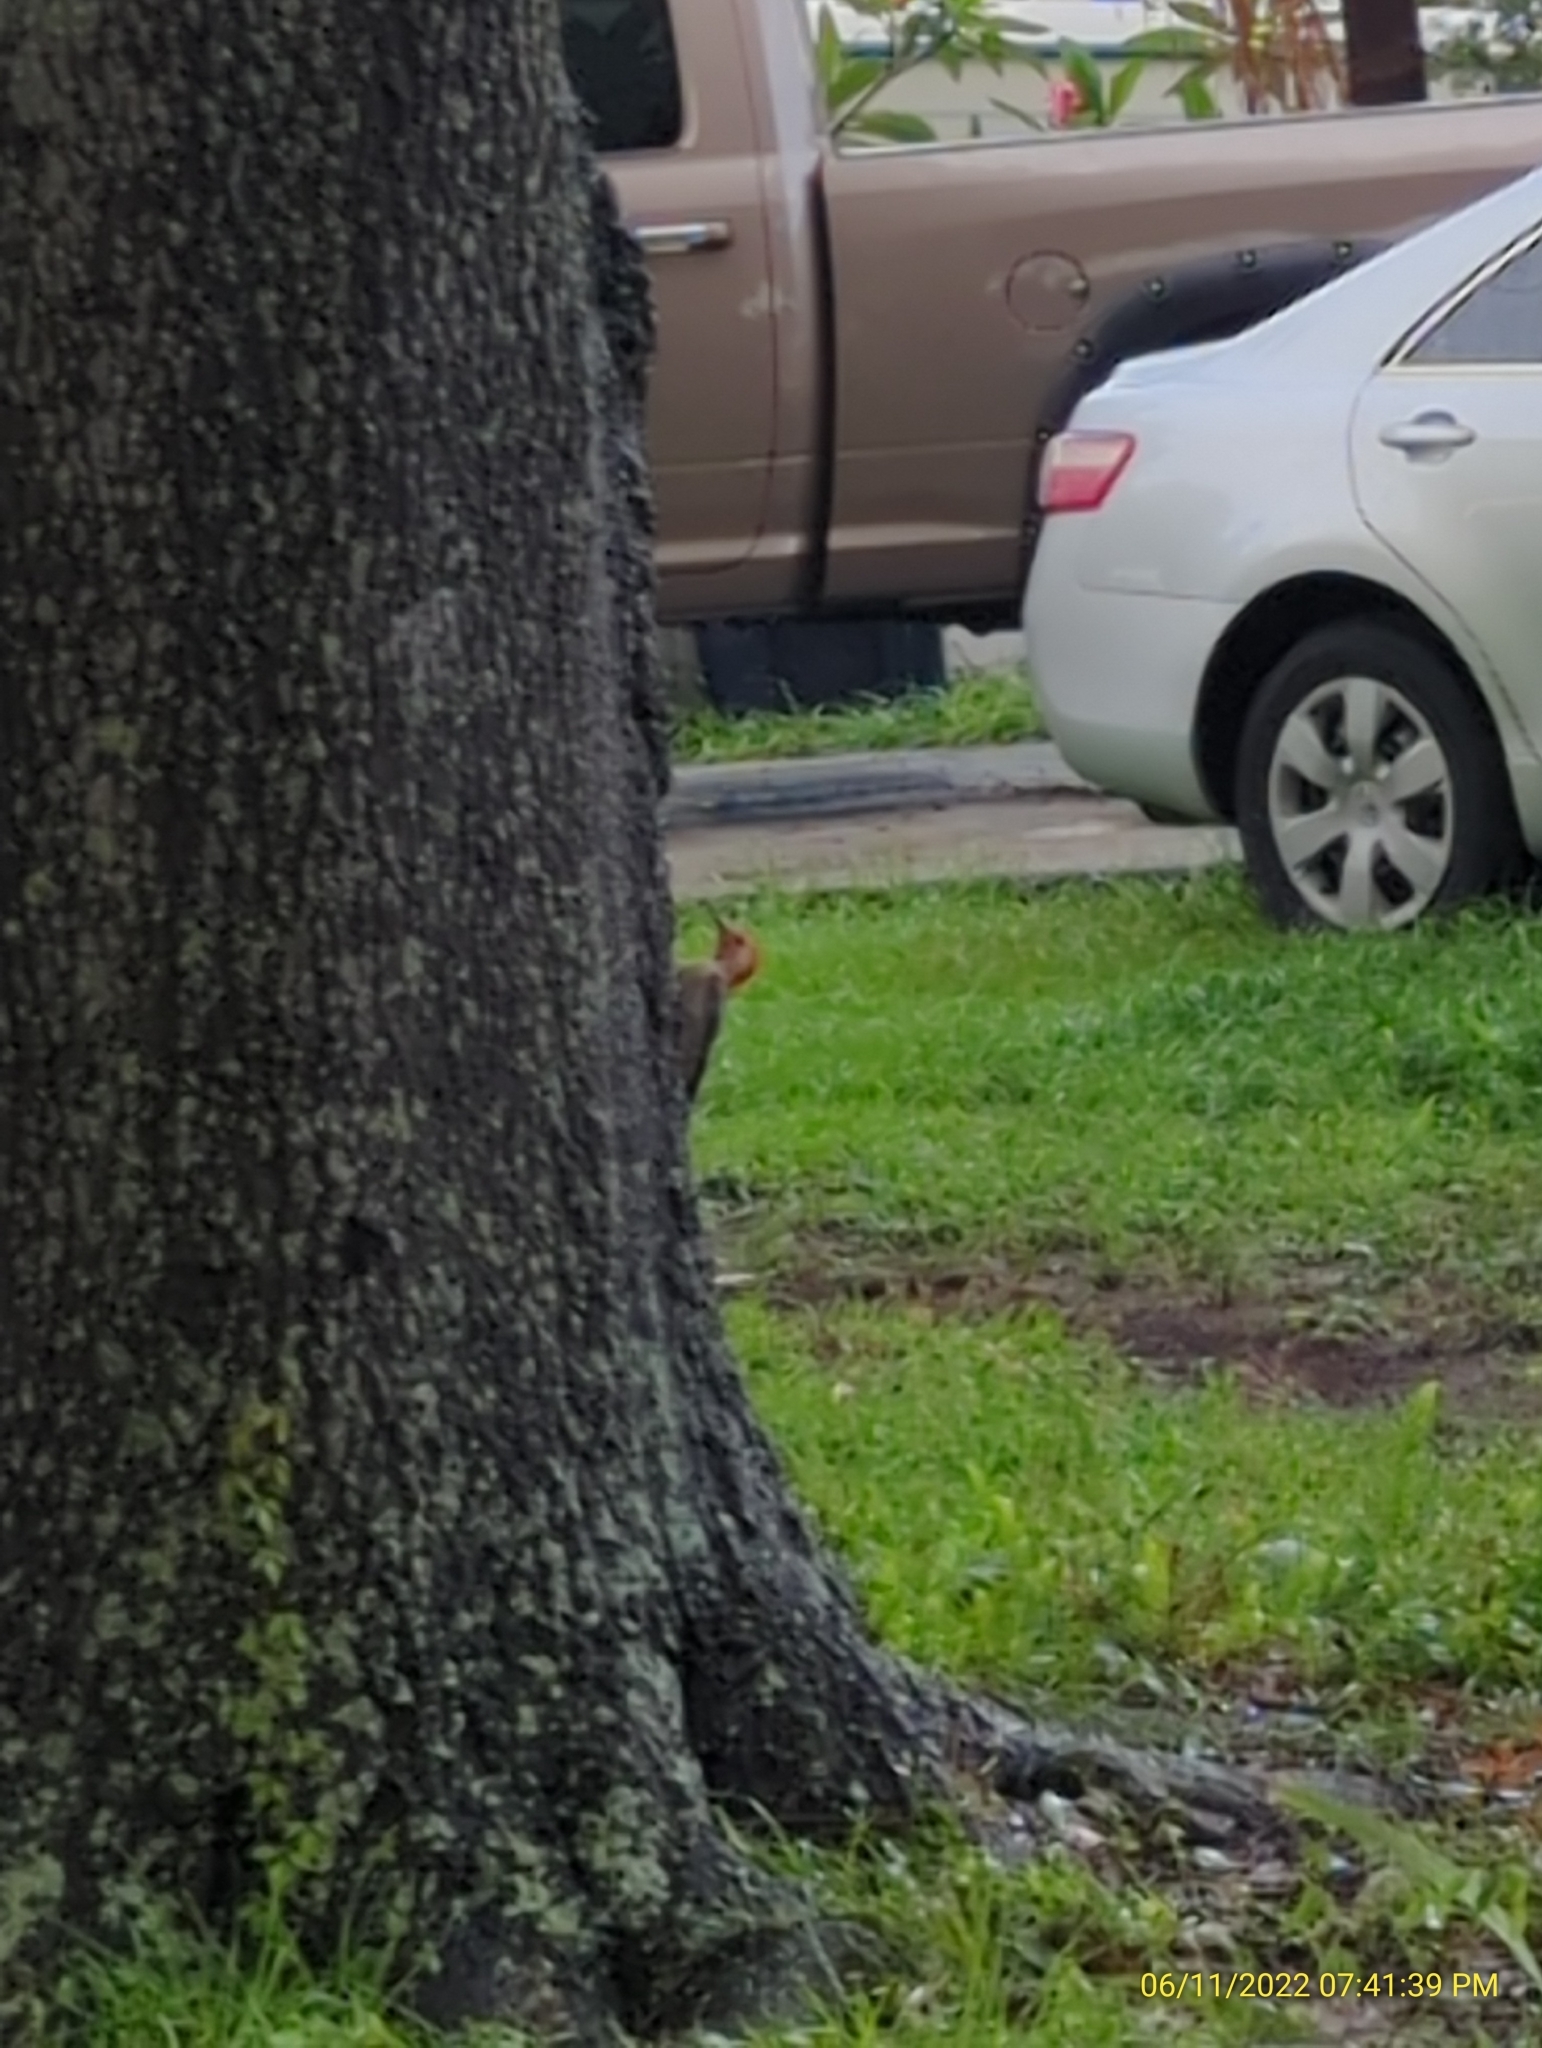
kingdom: Animalia
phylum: Chordata
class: Aves
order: Piciformes
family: Picidae
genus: Melanerpes
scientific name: Melanerpes carolinus
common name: Red-bellied woodpecker
